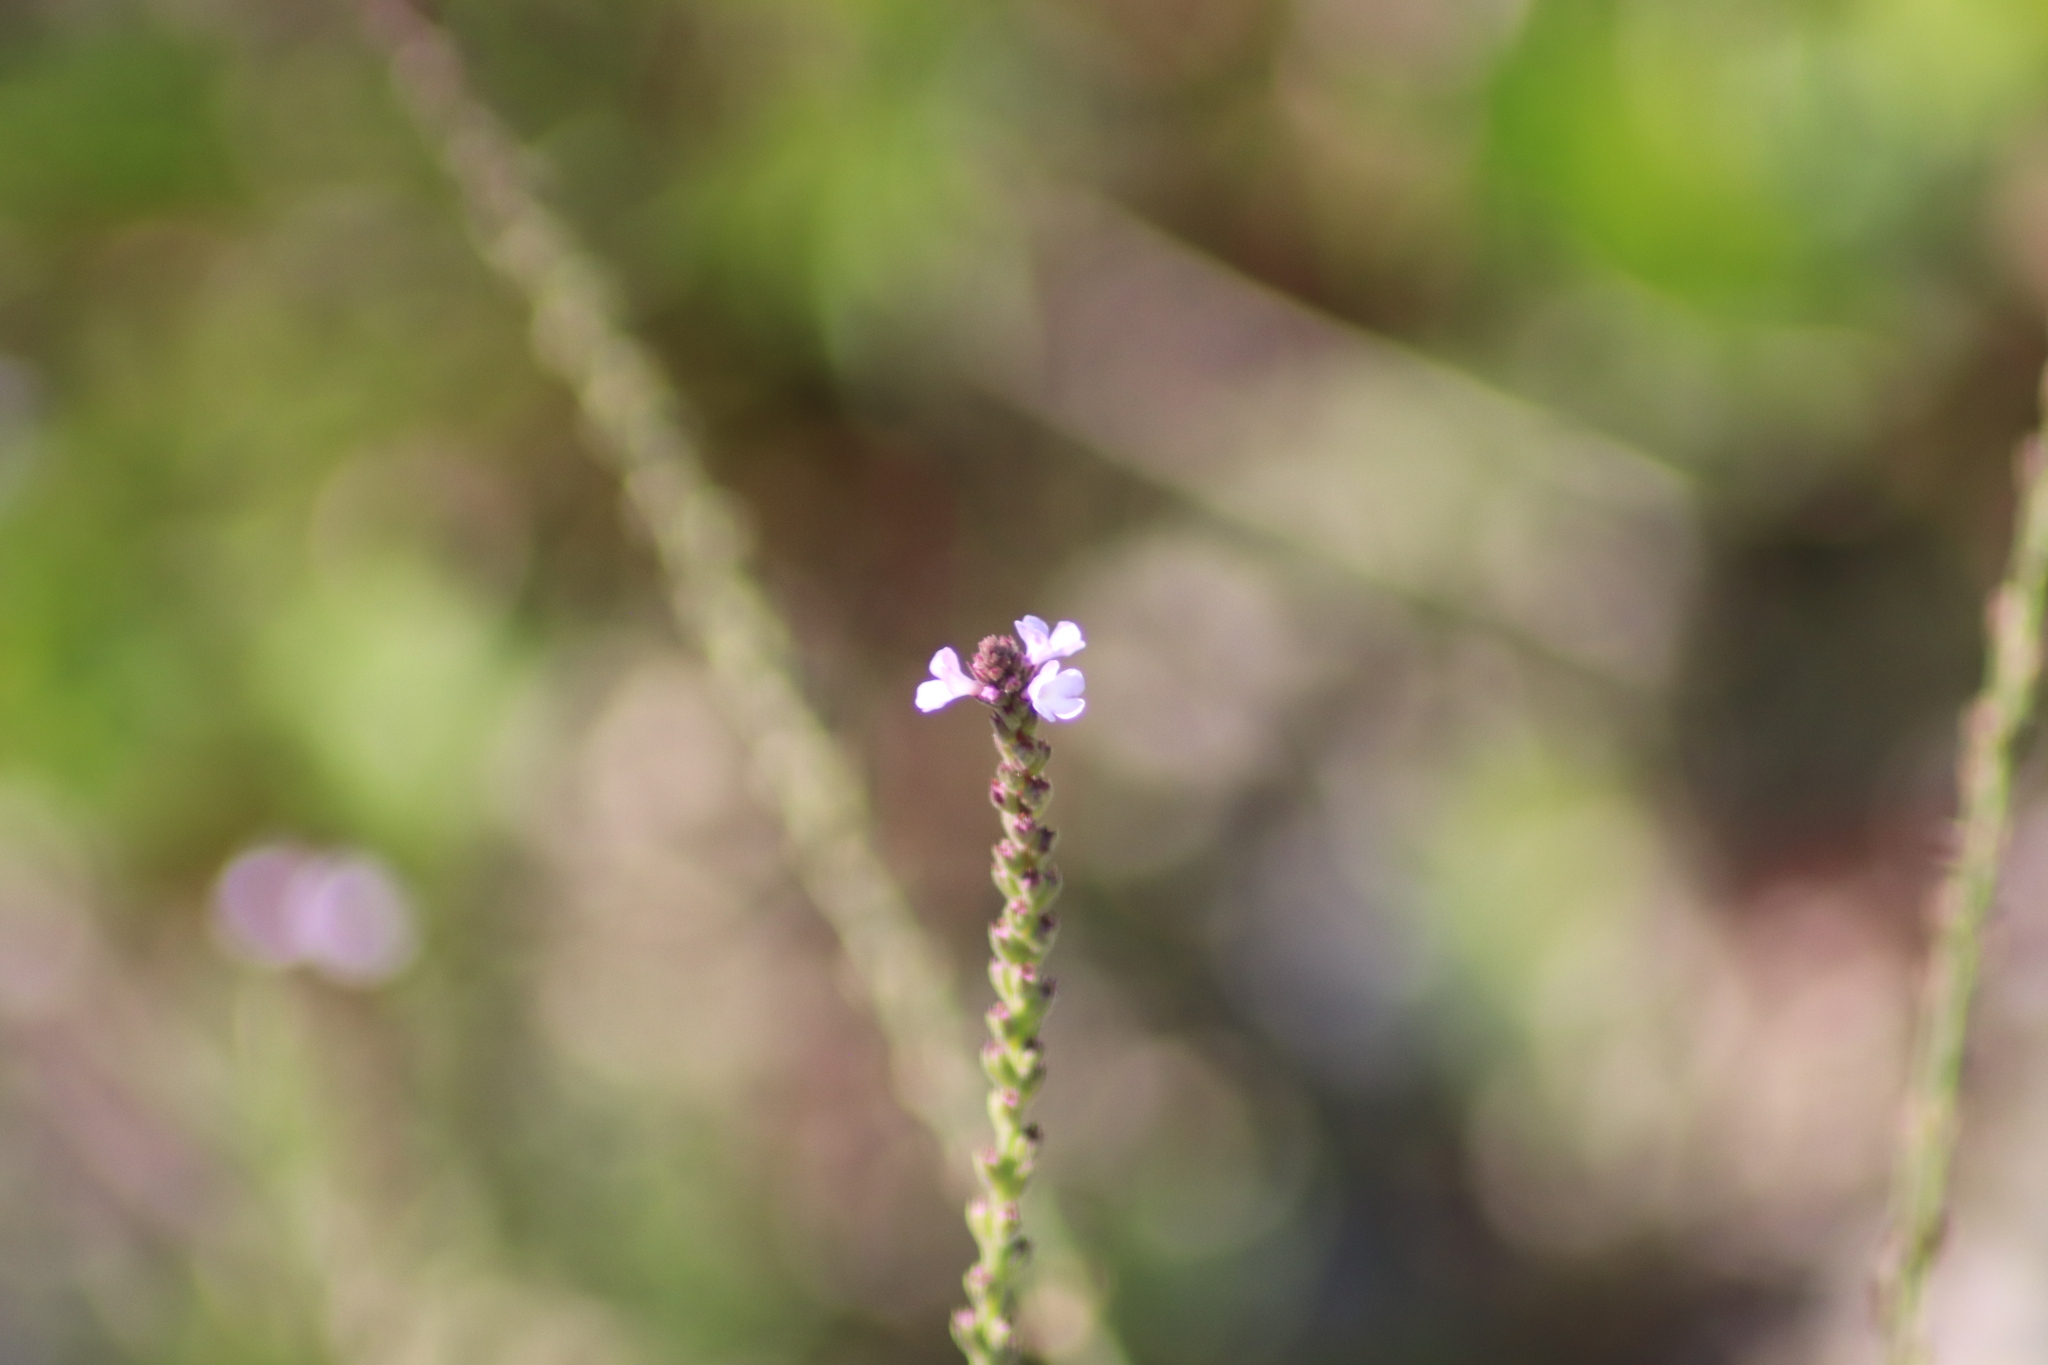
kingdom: Plantae
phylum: Tracheophyta
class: Magnoliopsida
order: Lamiales
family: Verbenaceae
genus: Verbena
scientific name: Verbena officinalis
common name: Vervain
